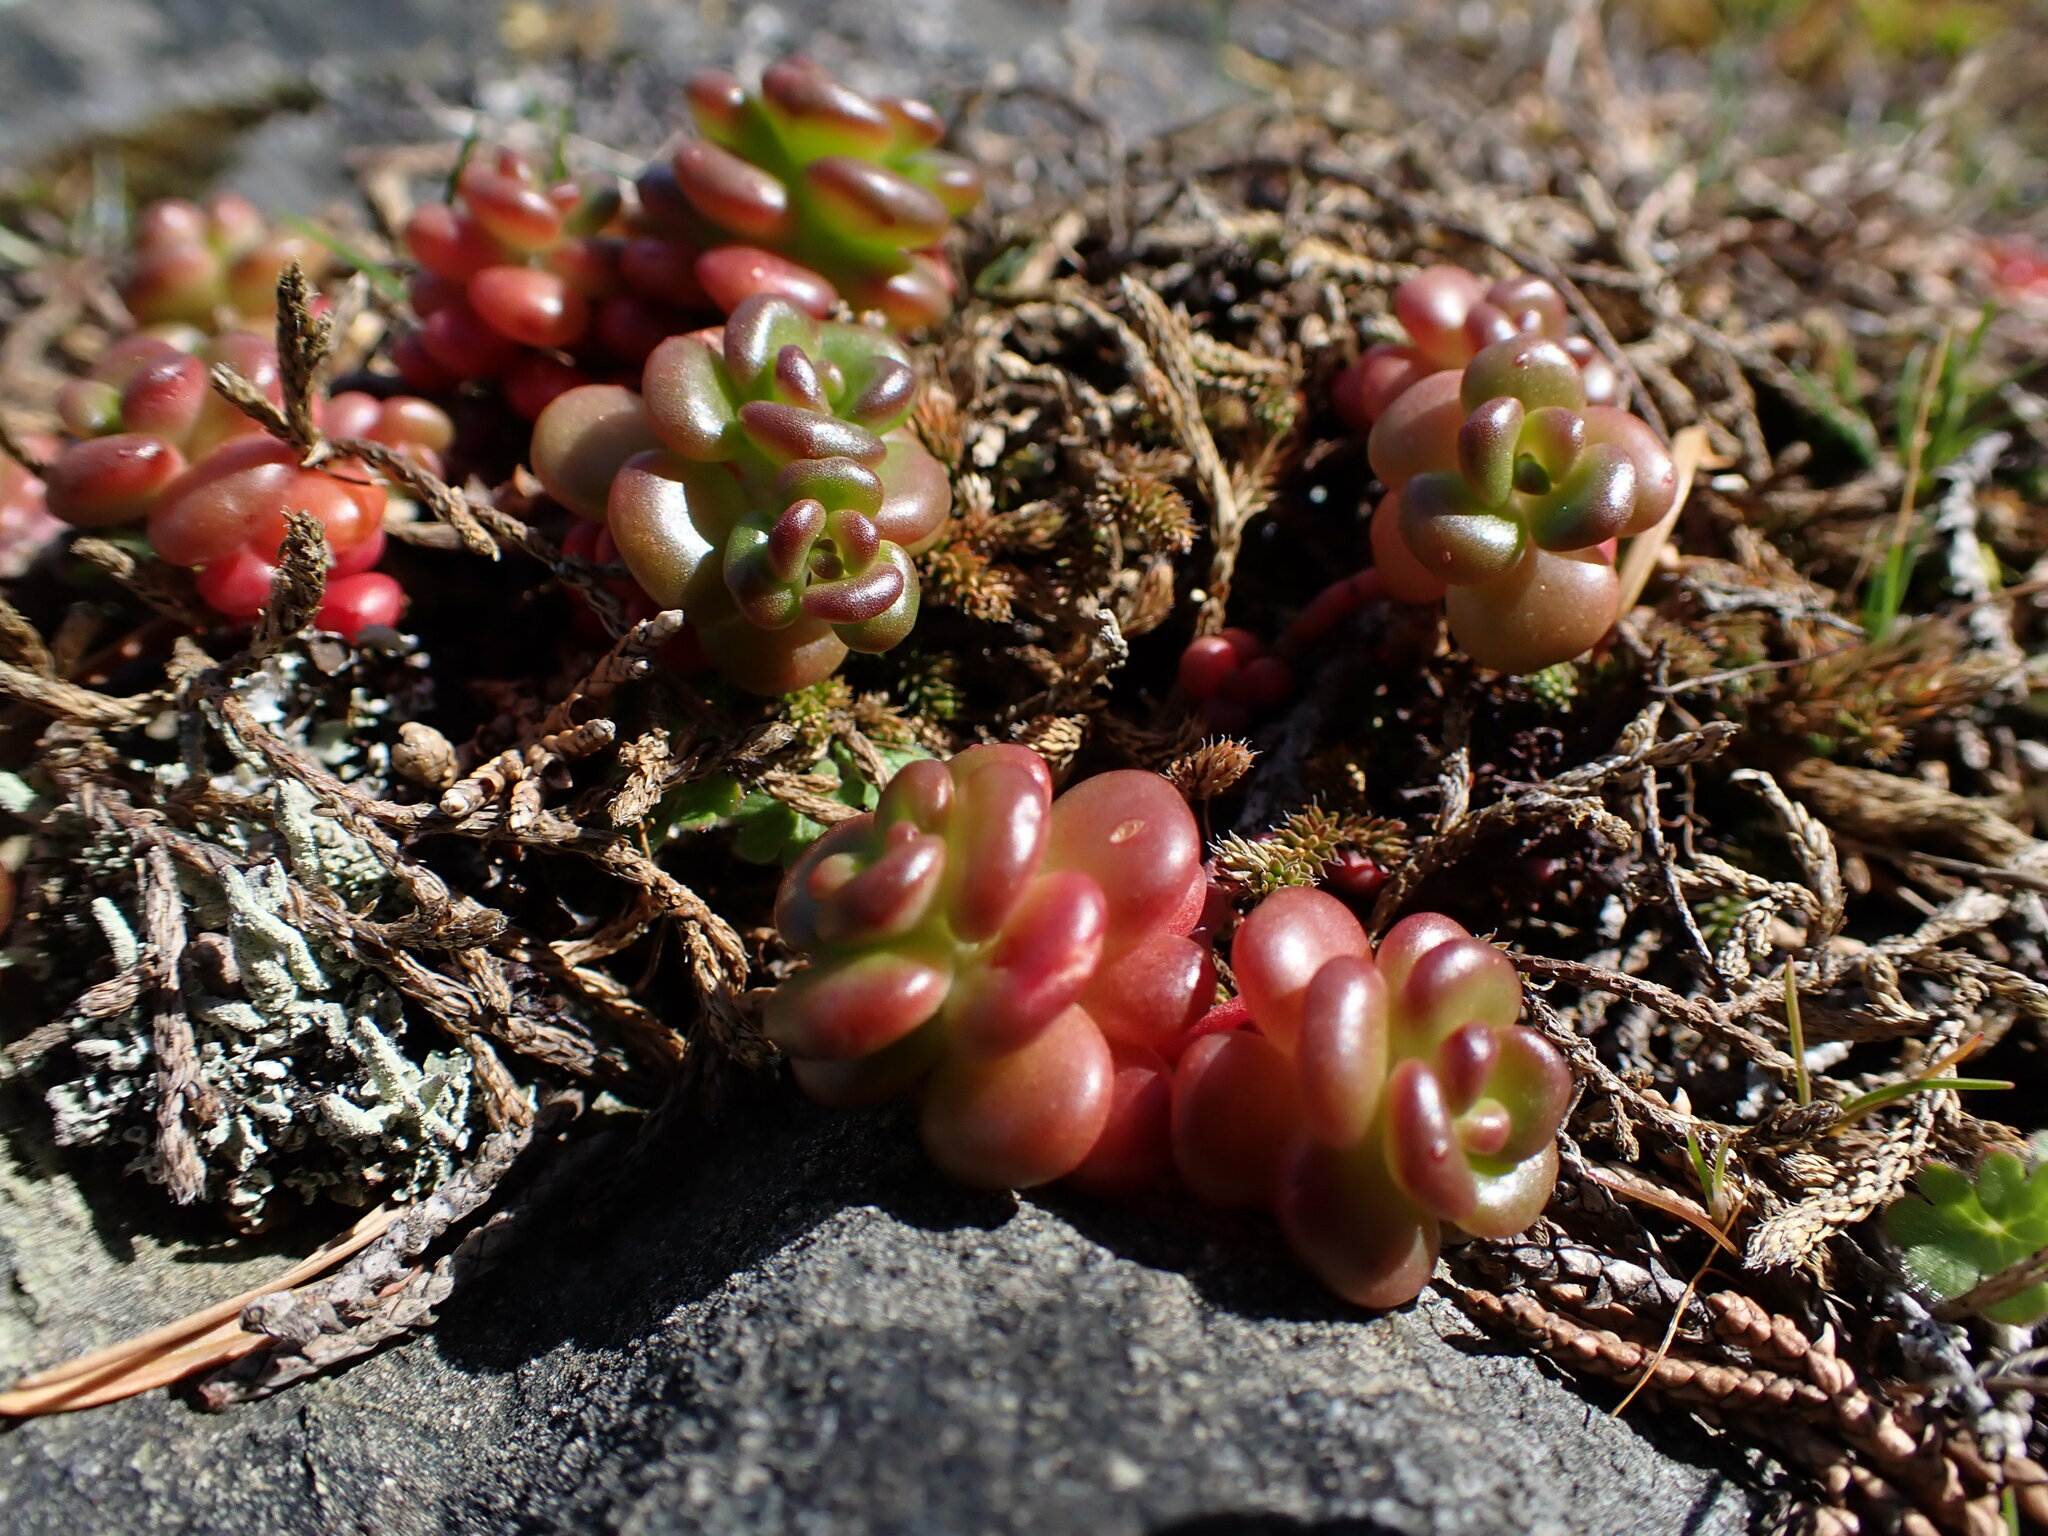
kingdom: Plantae
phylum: Tracheophyta
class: Magnoliopsida
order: Saxifragales
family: Crassulaceae
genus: Sedum
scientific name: Sedum oreganum
